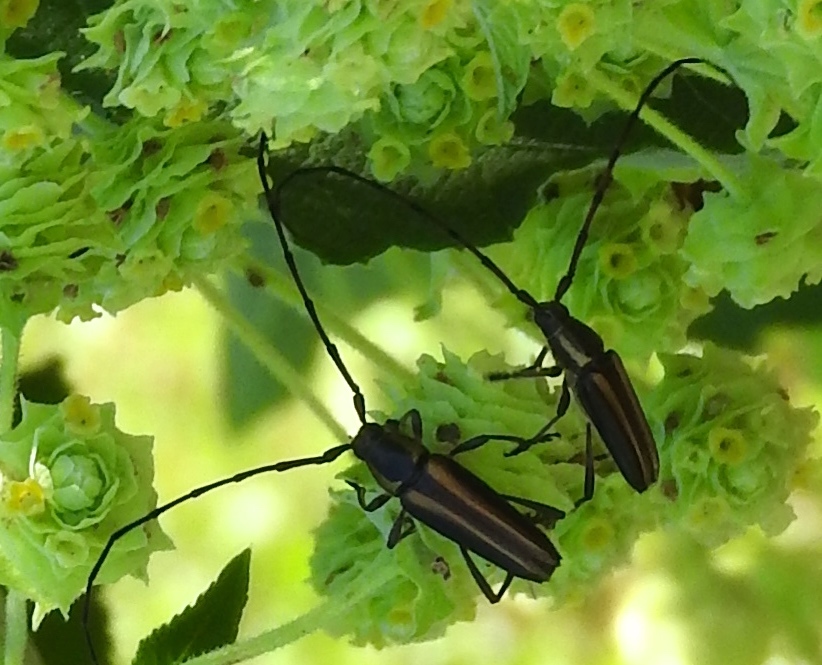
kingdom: Animalia
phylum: Arthropoda
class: Insecta
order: Coleoptera
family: Cerambycidae
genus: Sphaenothecus
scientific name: Sphaenothecus
